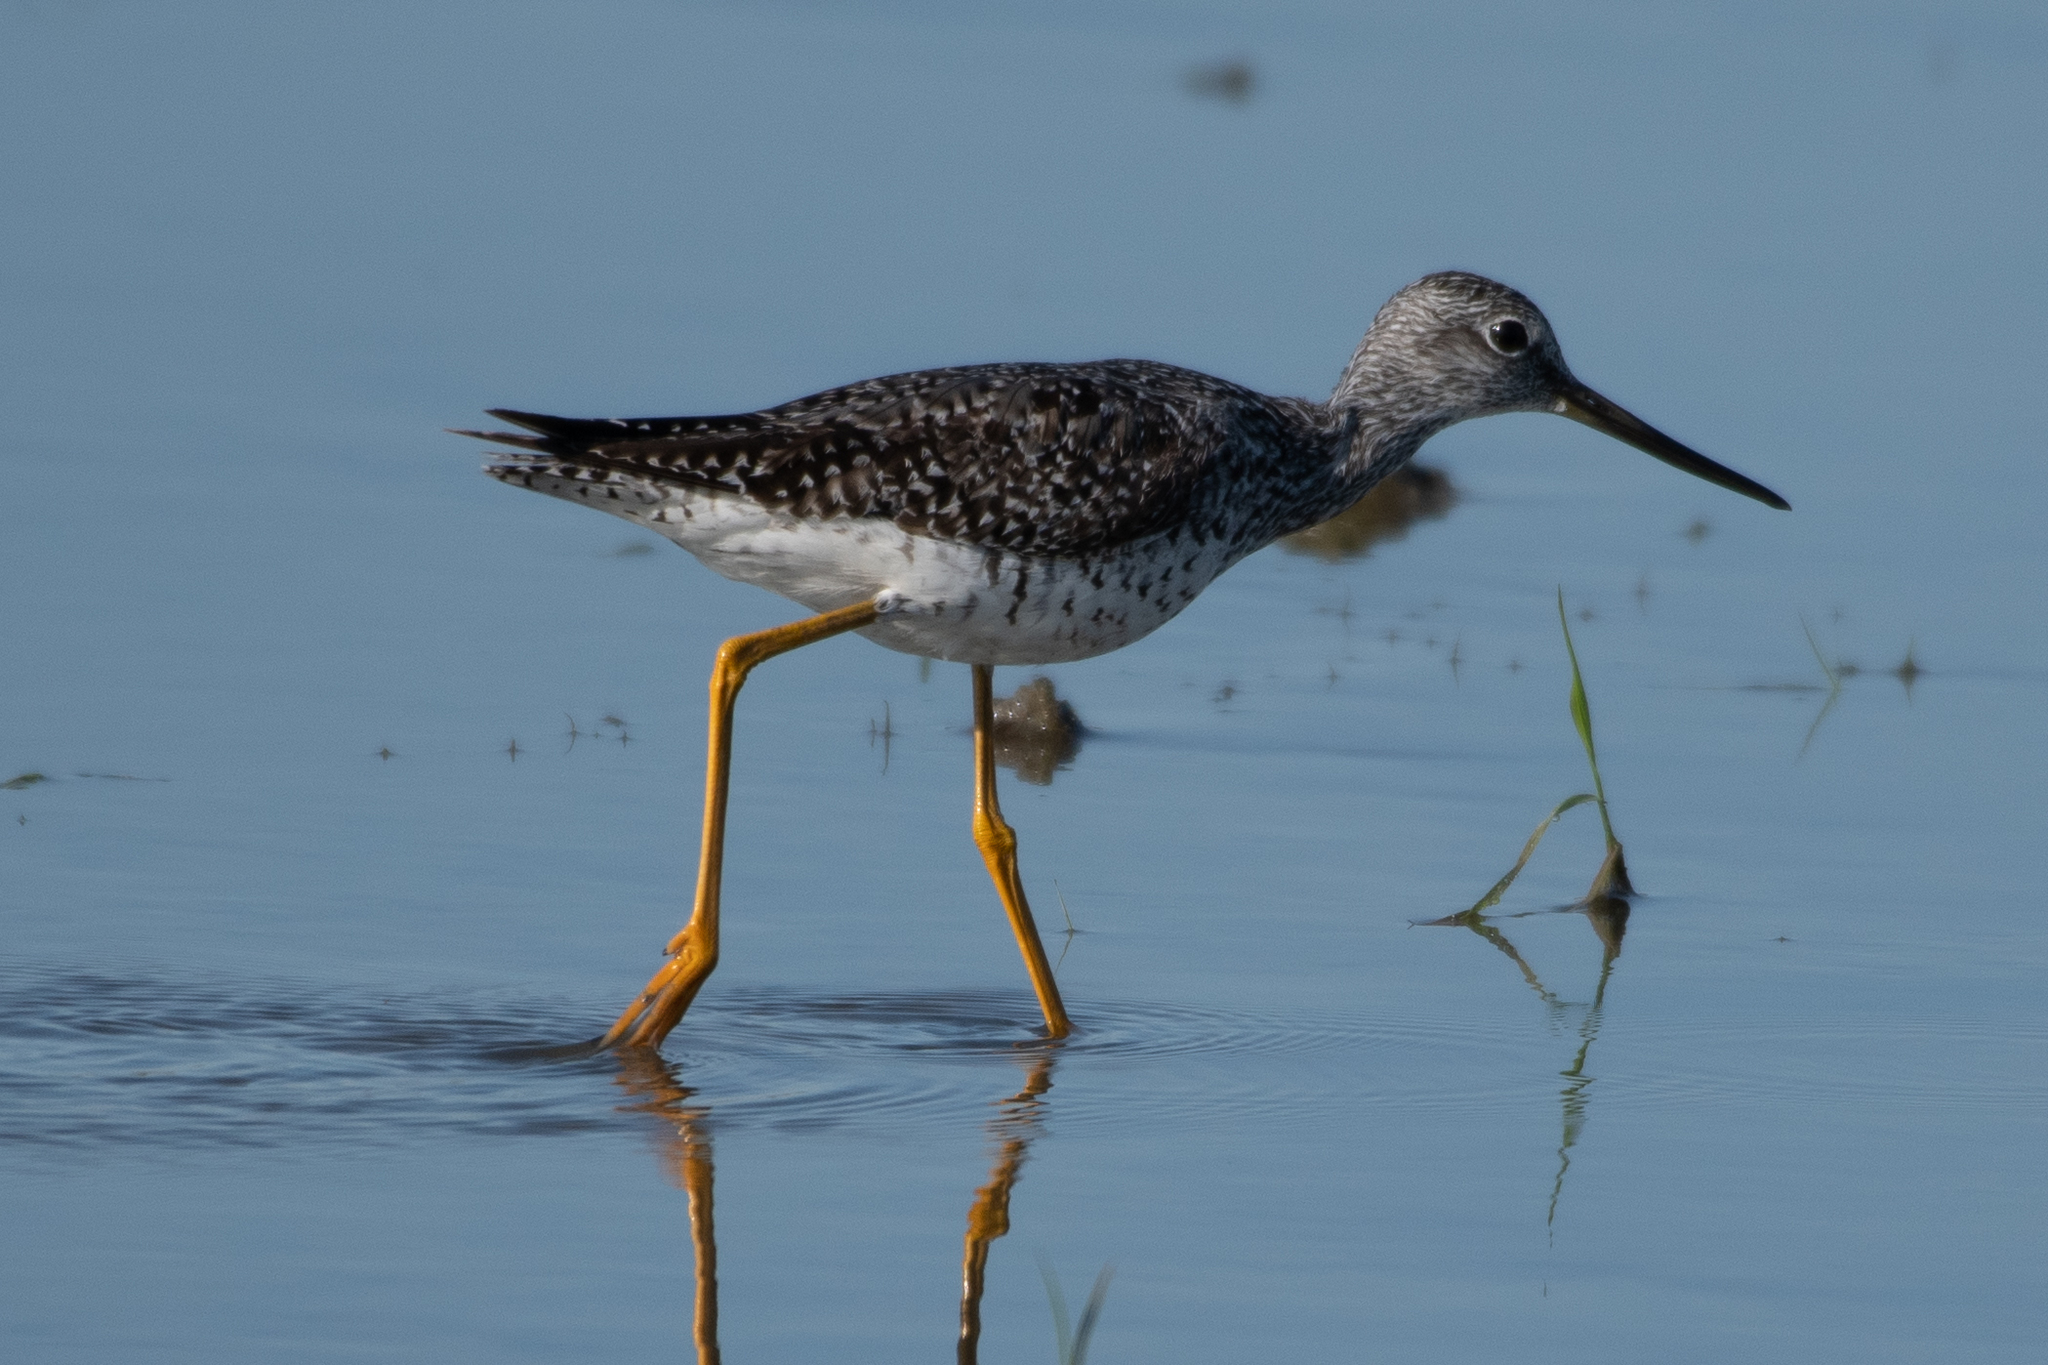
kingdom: Animalia
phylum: Chordata
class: Aves
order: Charadriiformes
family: Scolopacidae
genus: Tringa
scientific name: Tringa melanoleuca
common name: Greater yellowlegs
